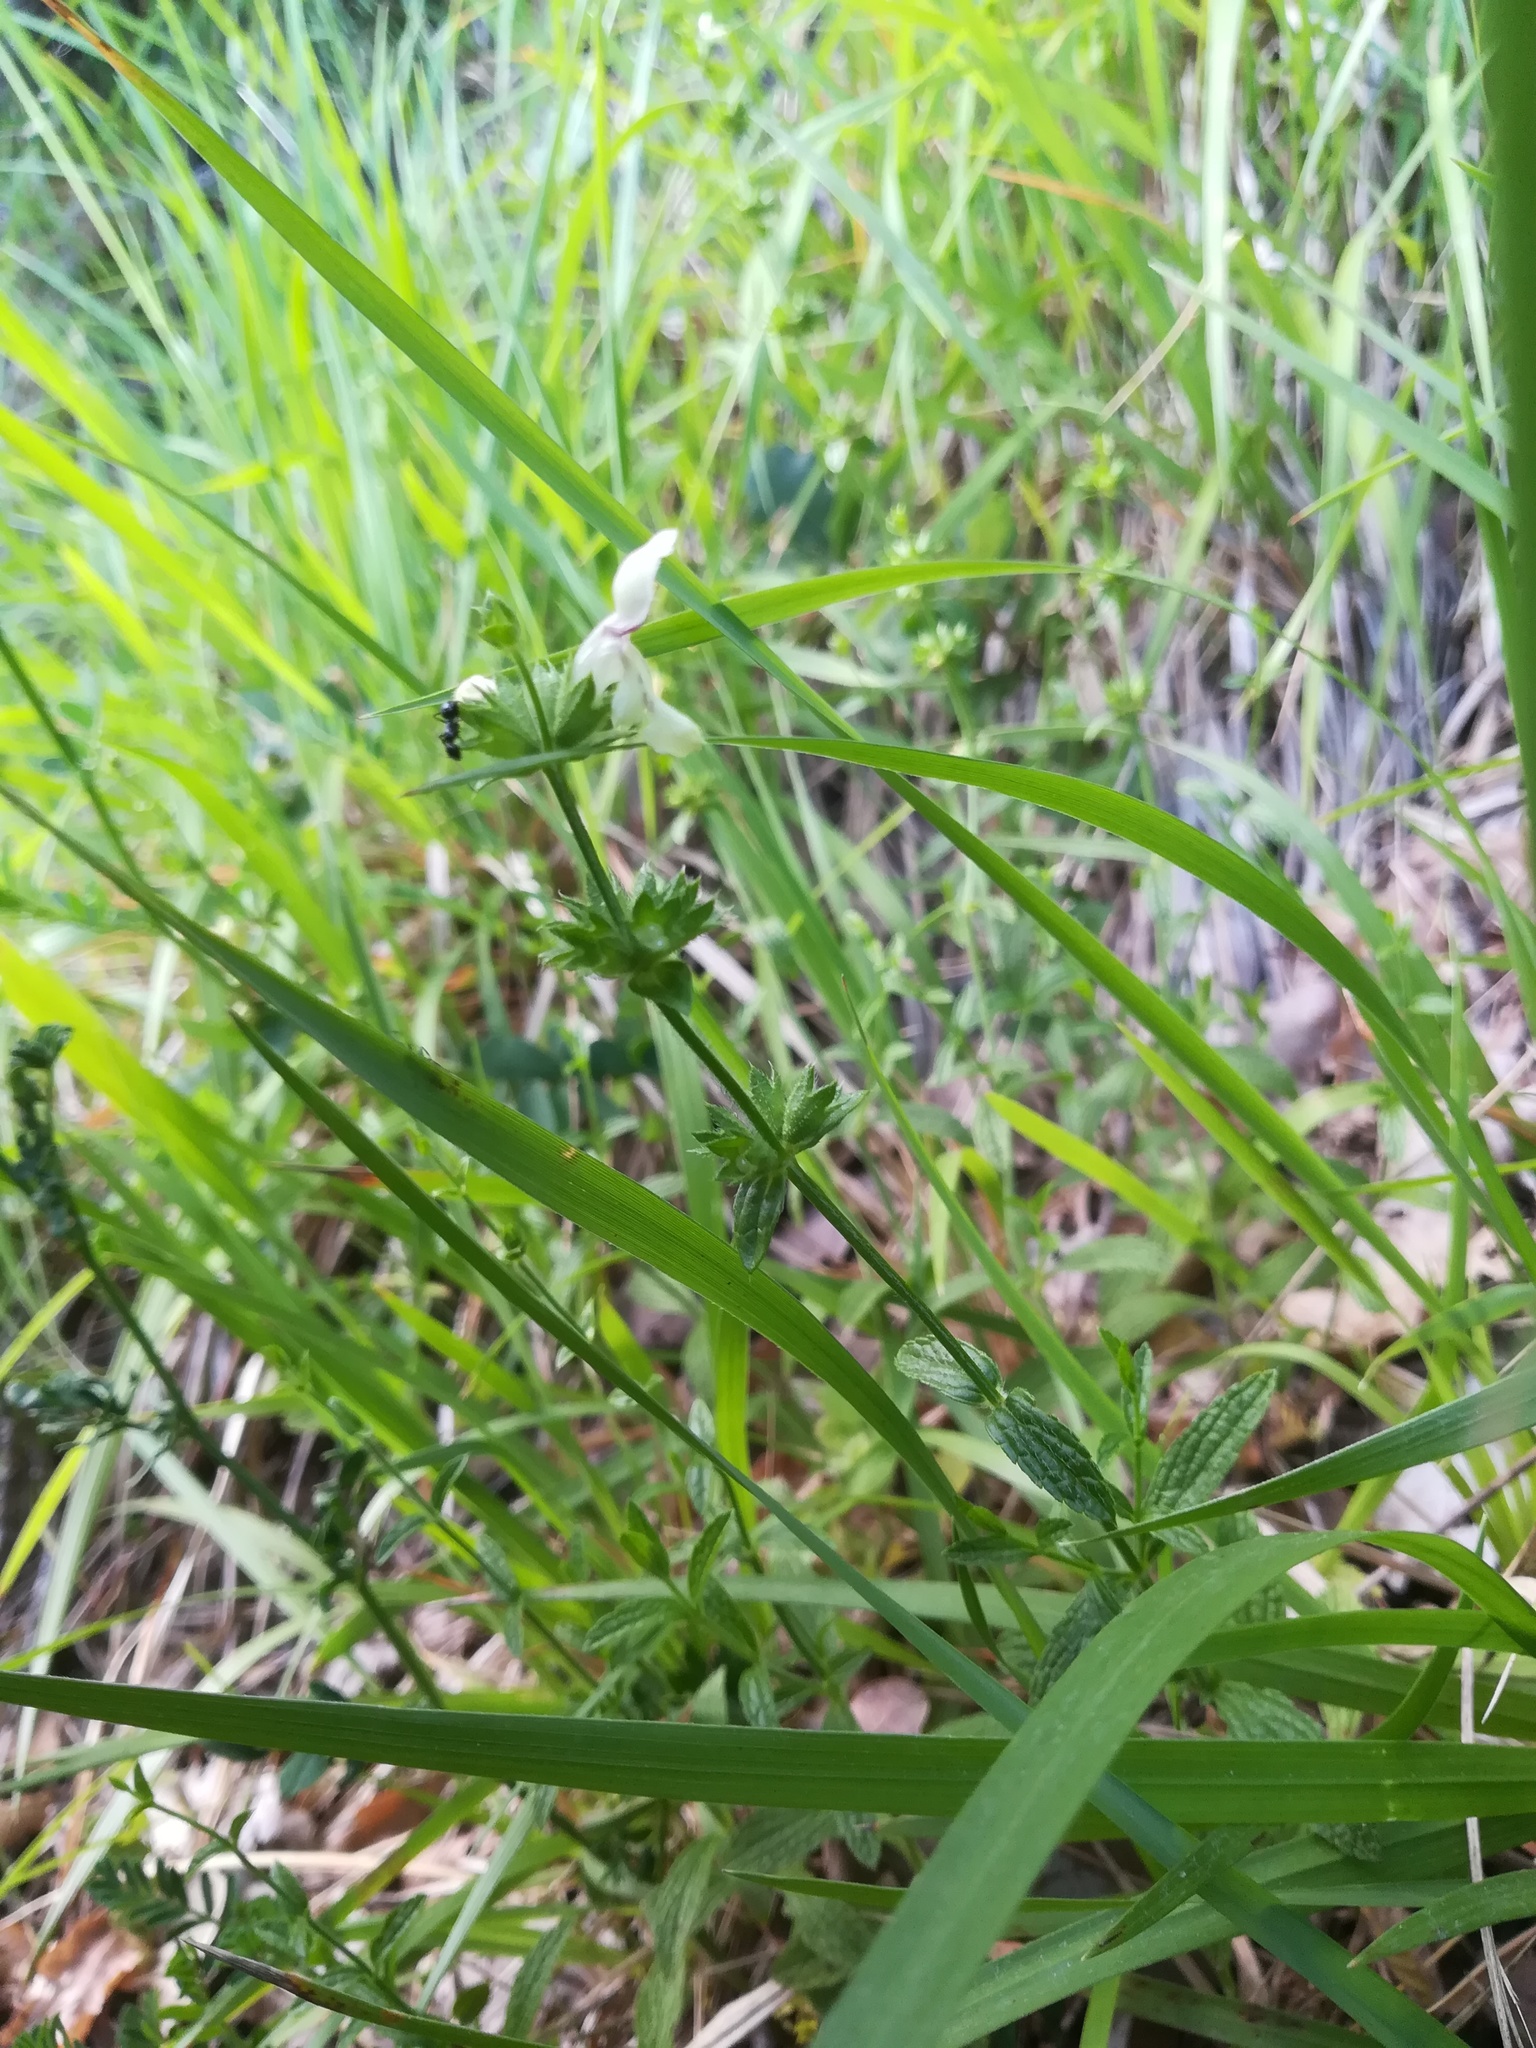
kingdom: Plantae
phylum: Tracheophyta
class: Magnoliopsida
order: Lamiales
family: Lamiaceae
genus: Stachys
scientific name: Stachys recta
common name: Perennial yellow-woundwort
